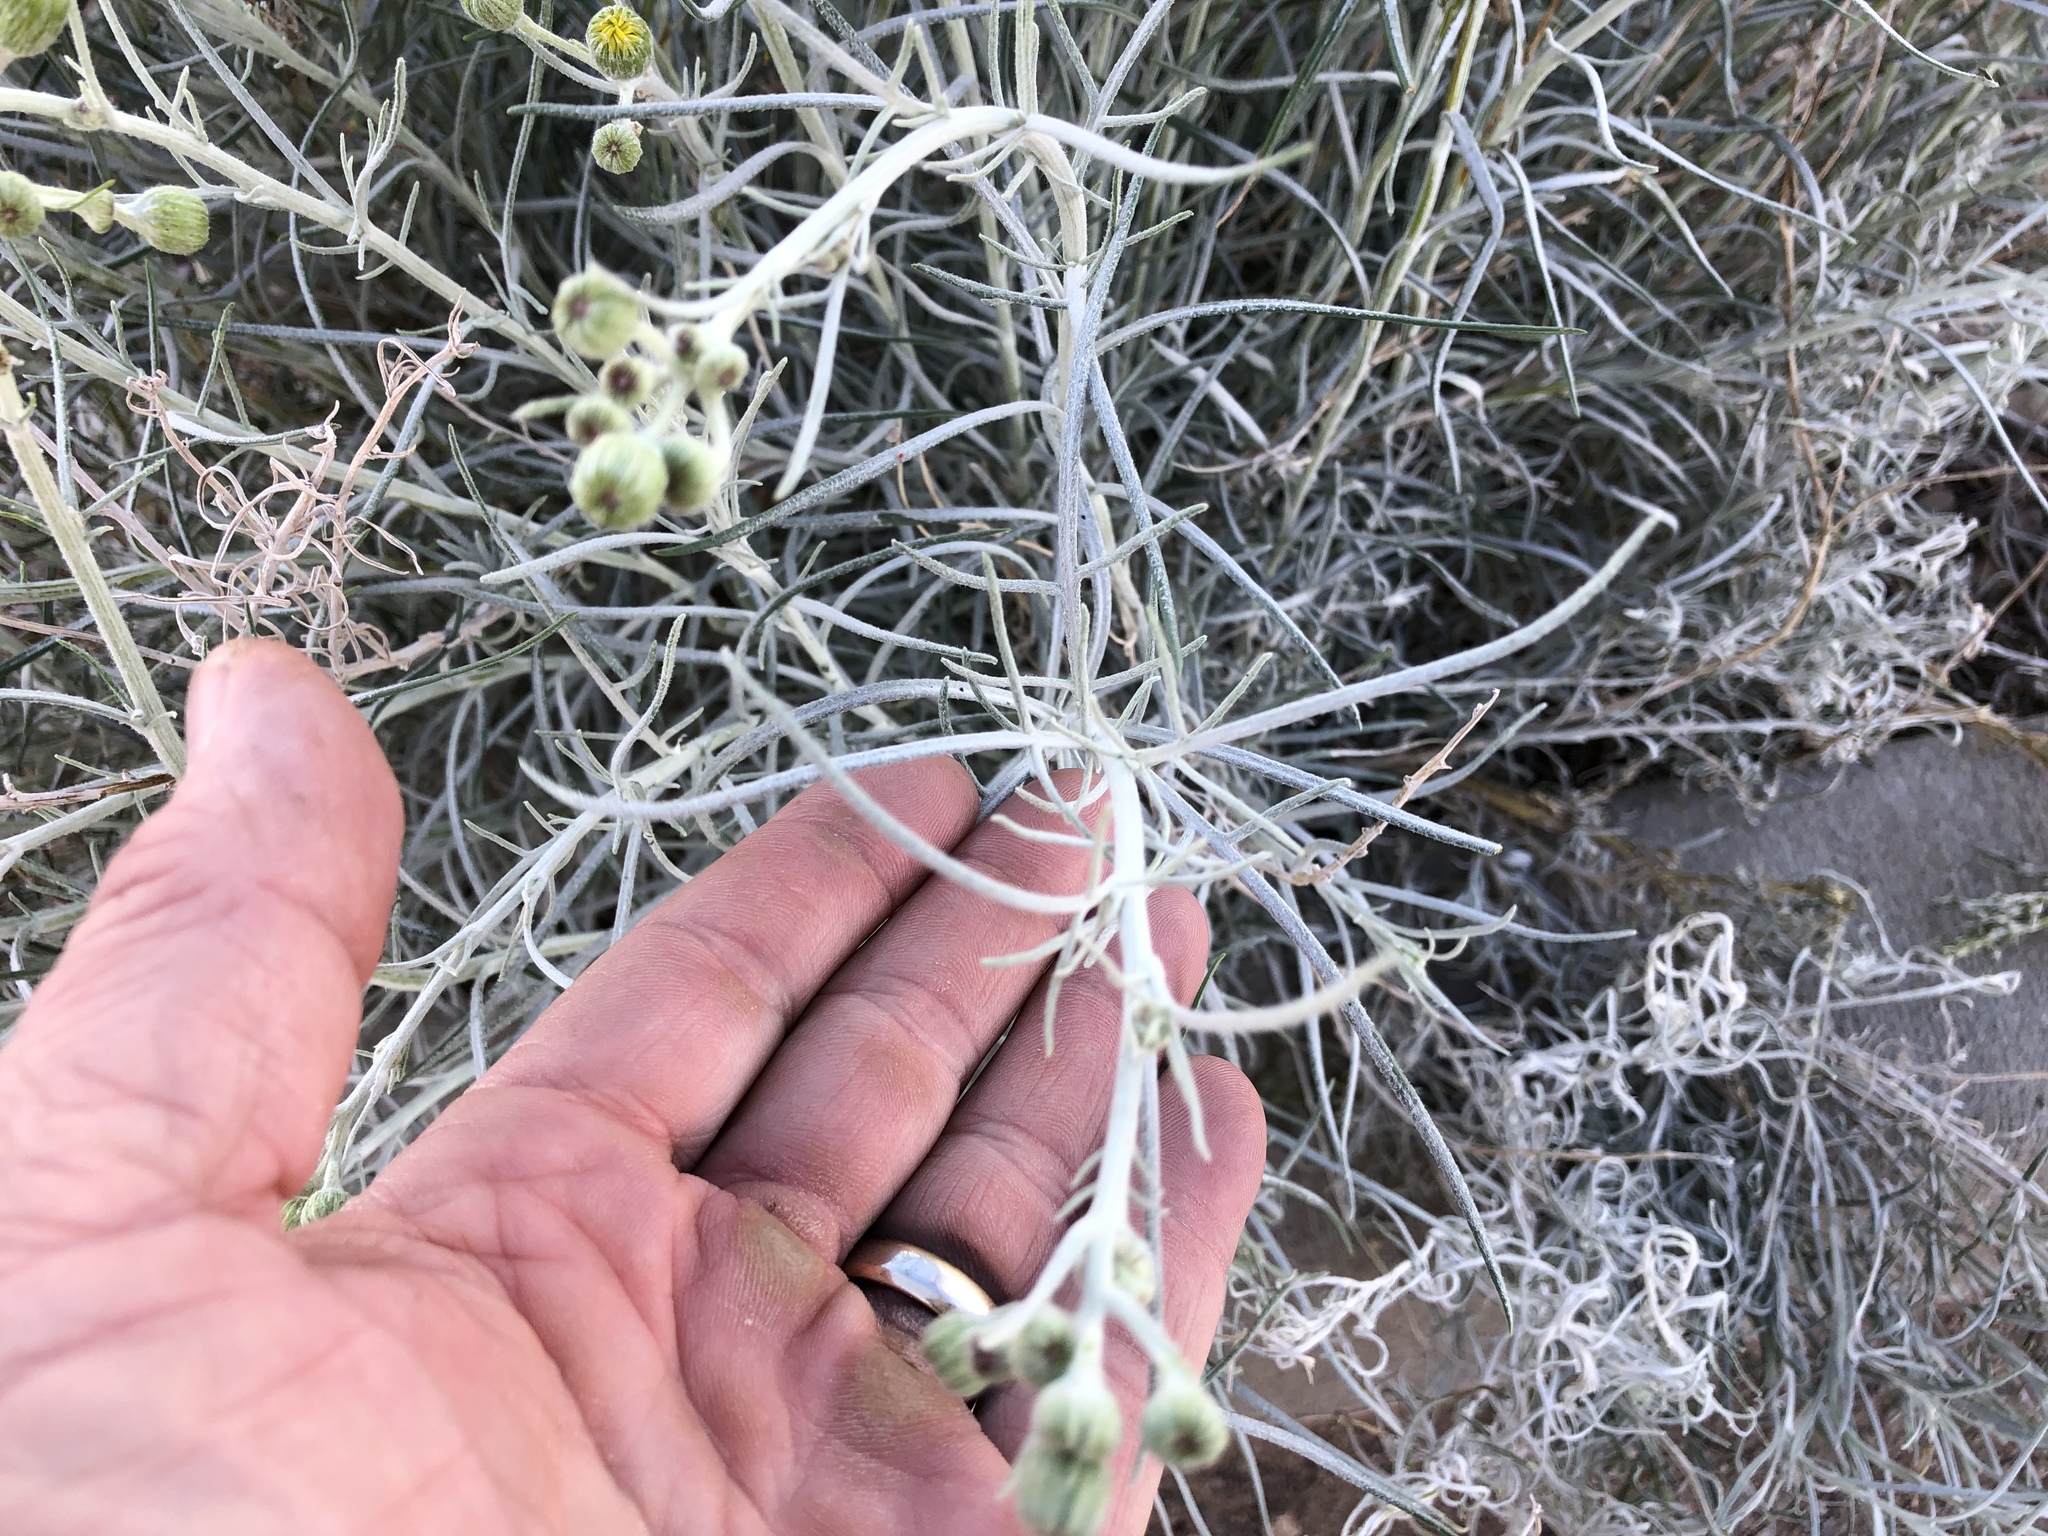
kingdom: Plantae
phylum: Tracheophyta
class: Magnoliopsida
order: Asterales
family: Asteraceae
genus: Senecio
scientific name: Senecio flaccidus
